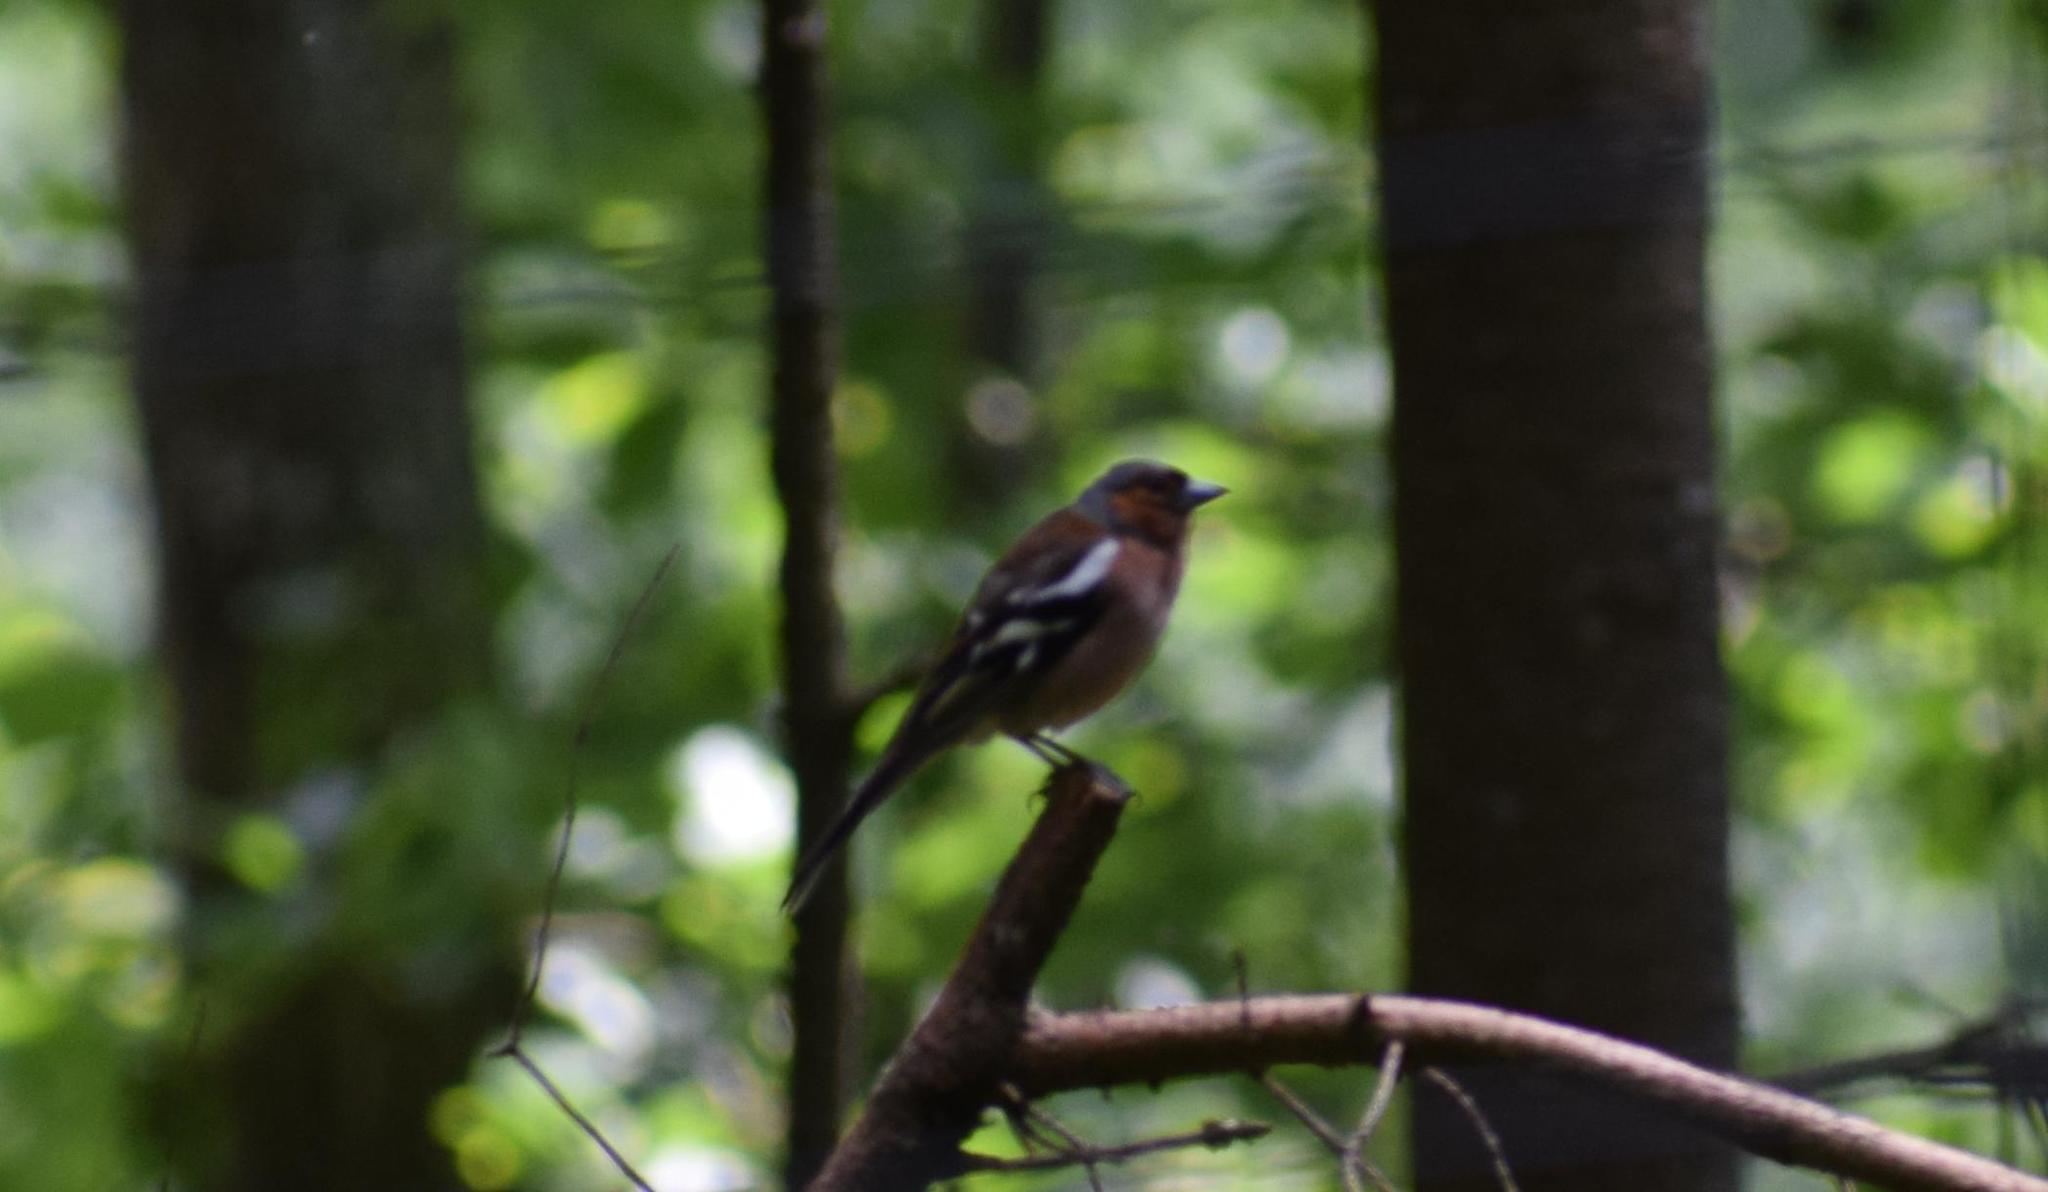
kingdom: Animalia
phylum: Chordata
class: Aves
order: Passeriformes
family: Fringillidae
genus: Fringilla
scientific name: Fringilla coelebs
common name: Common chaffinch
